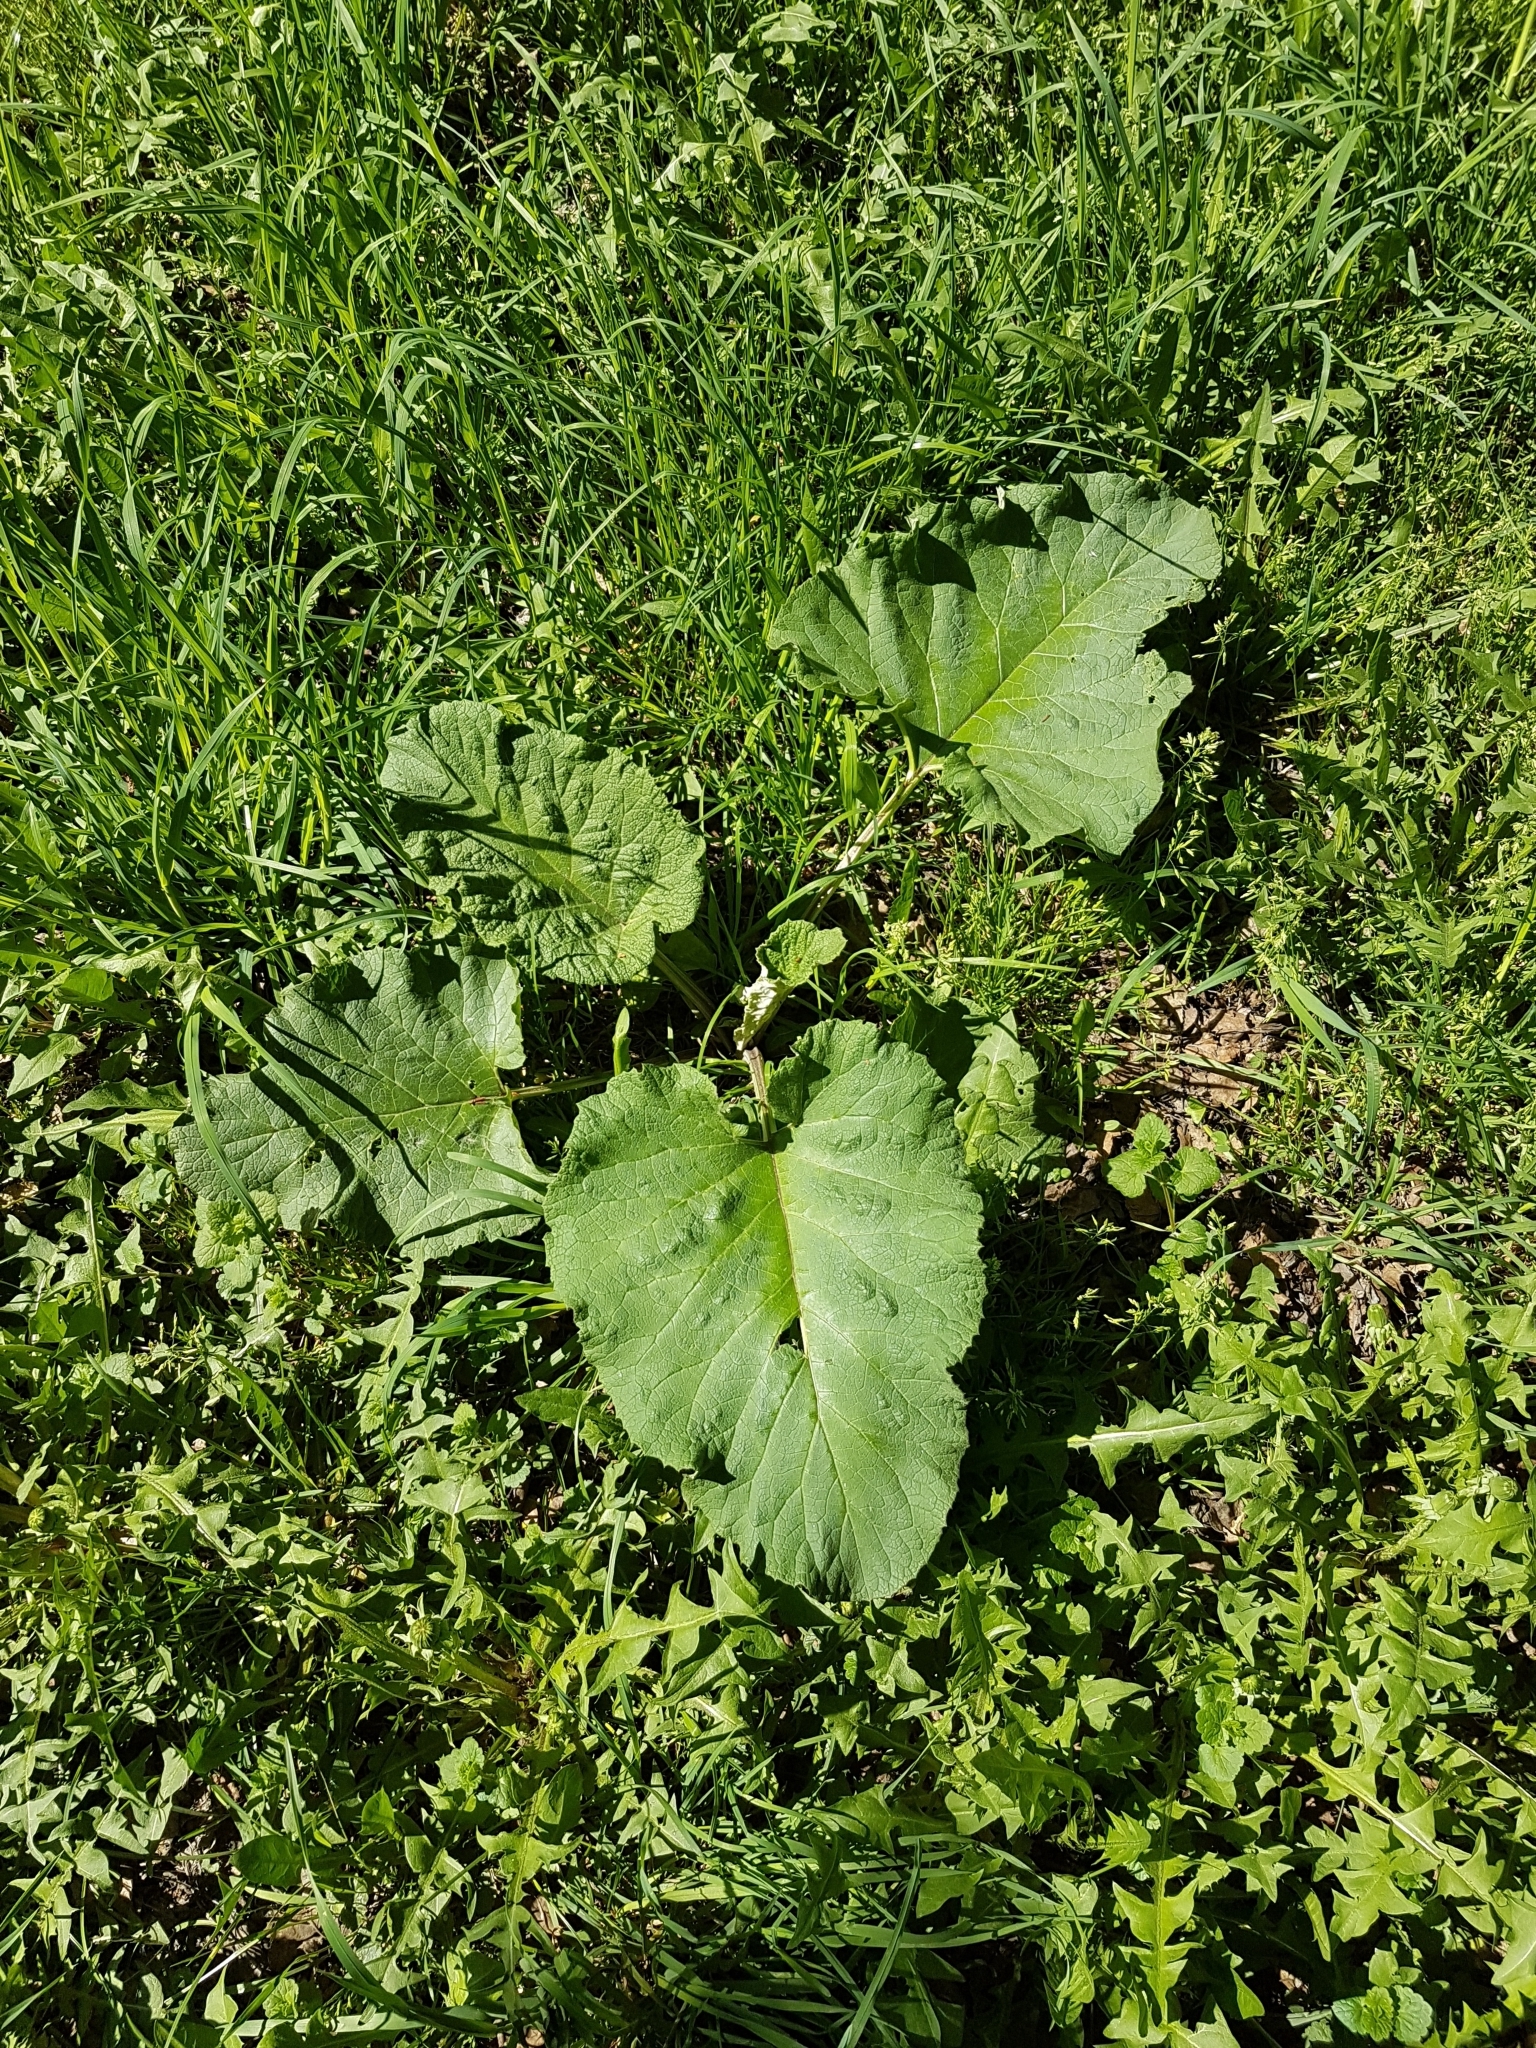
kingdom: Plantae
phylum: Tracheophyta
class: Magnoliopsida
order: Asterales
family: Asteraceae
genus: Arctium
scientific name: Arctium
